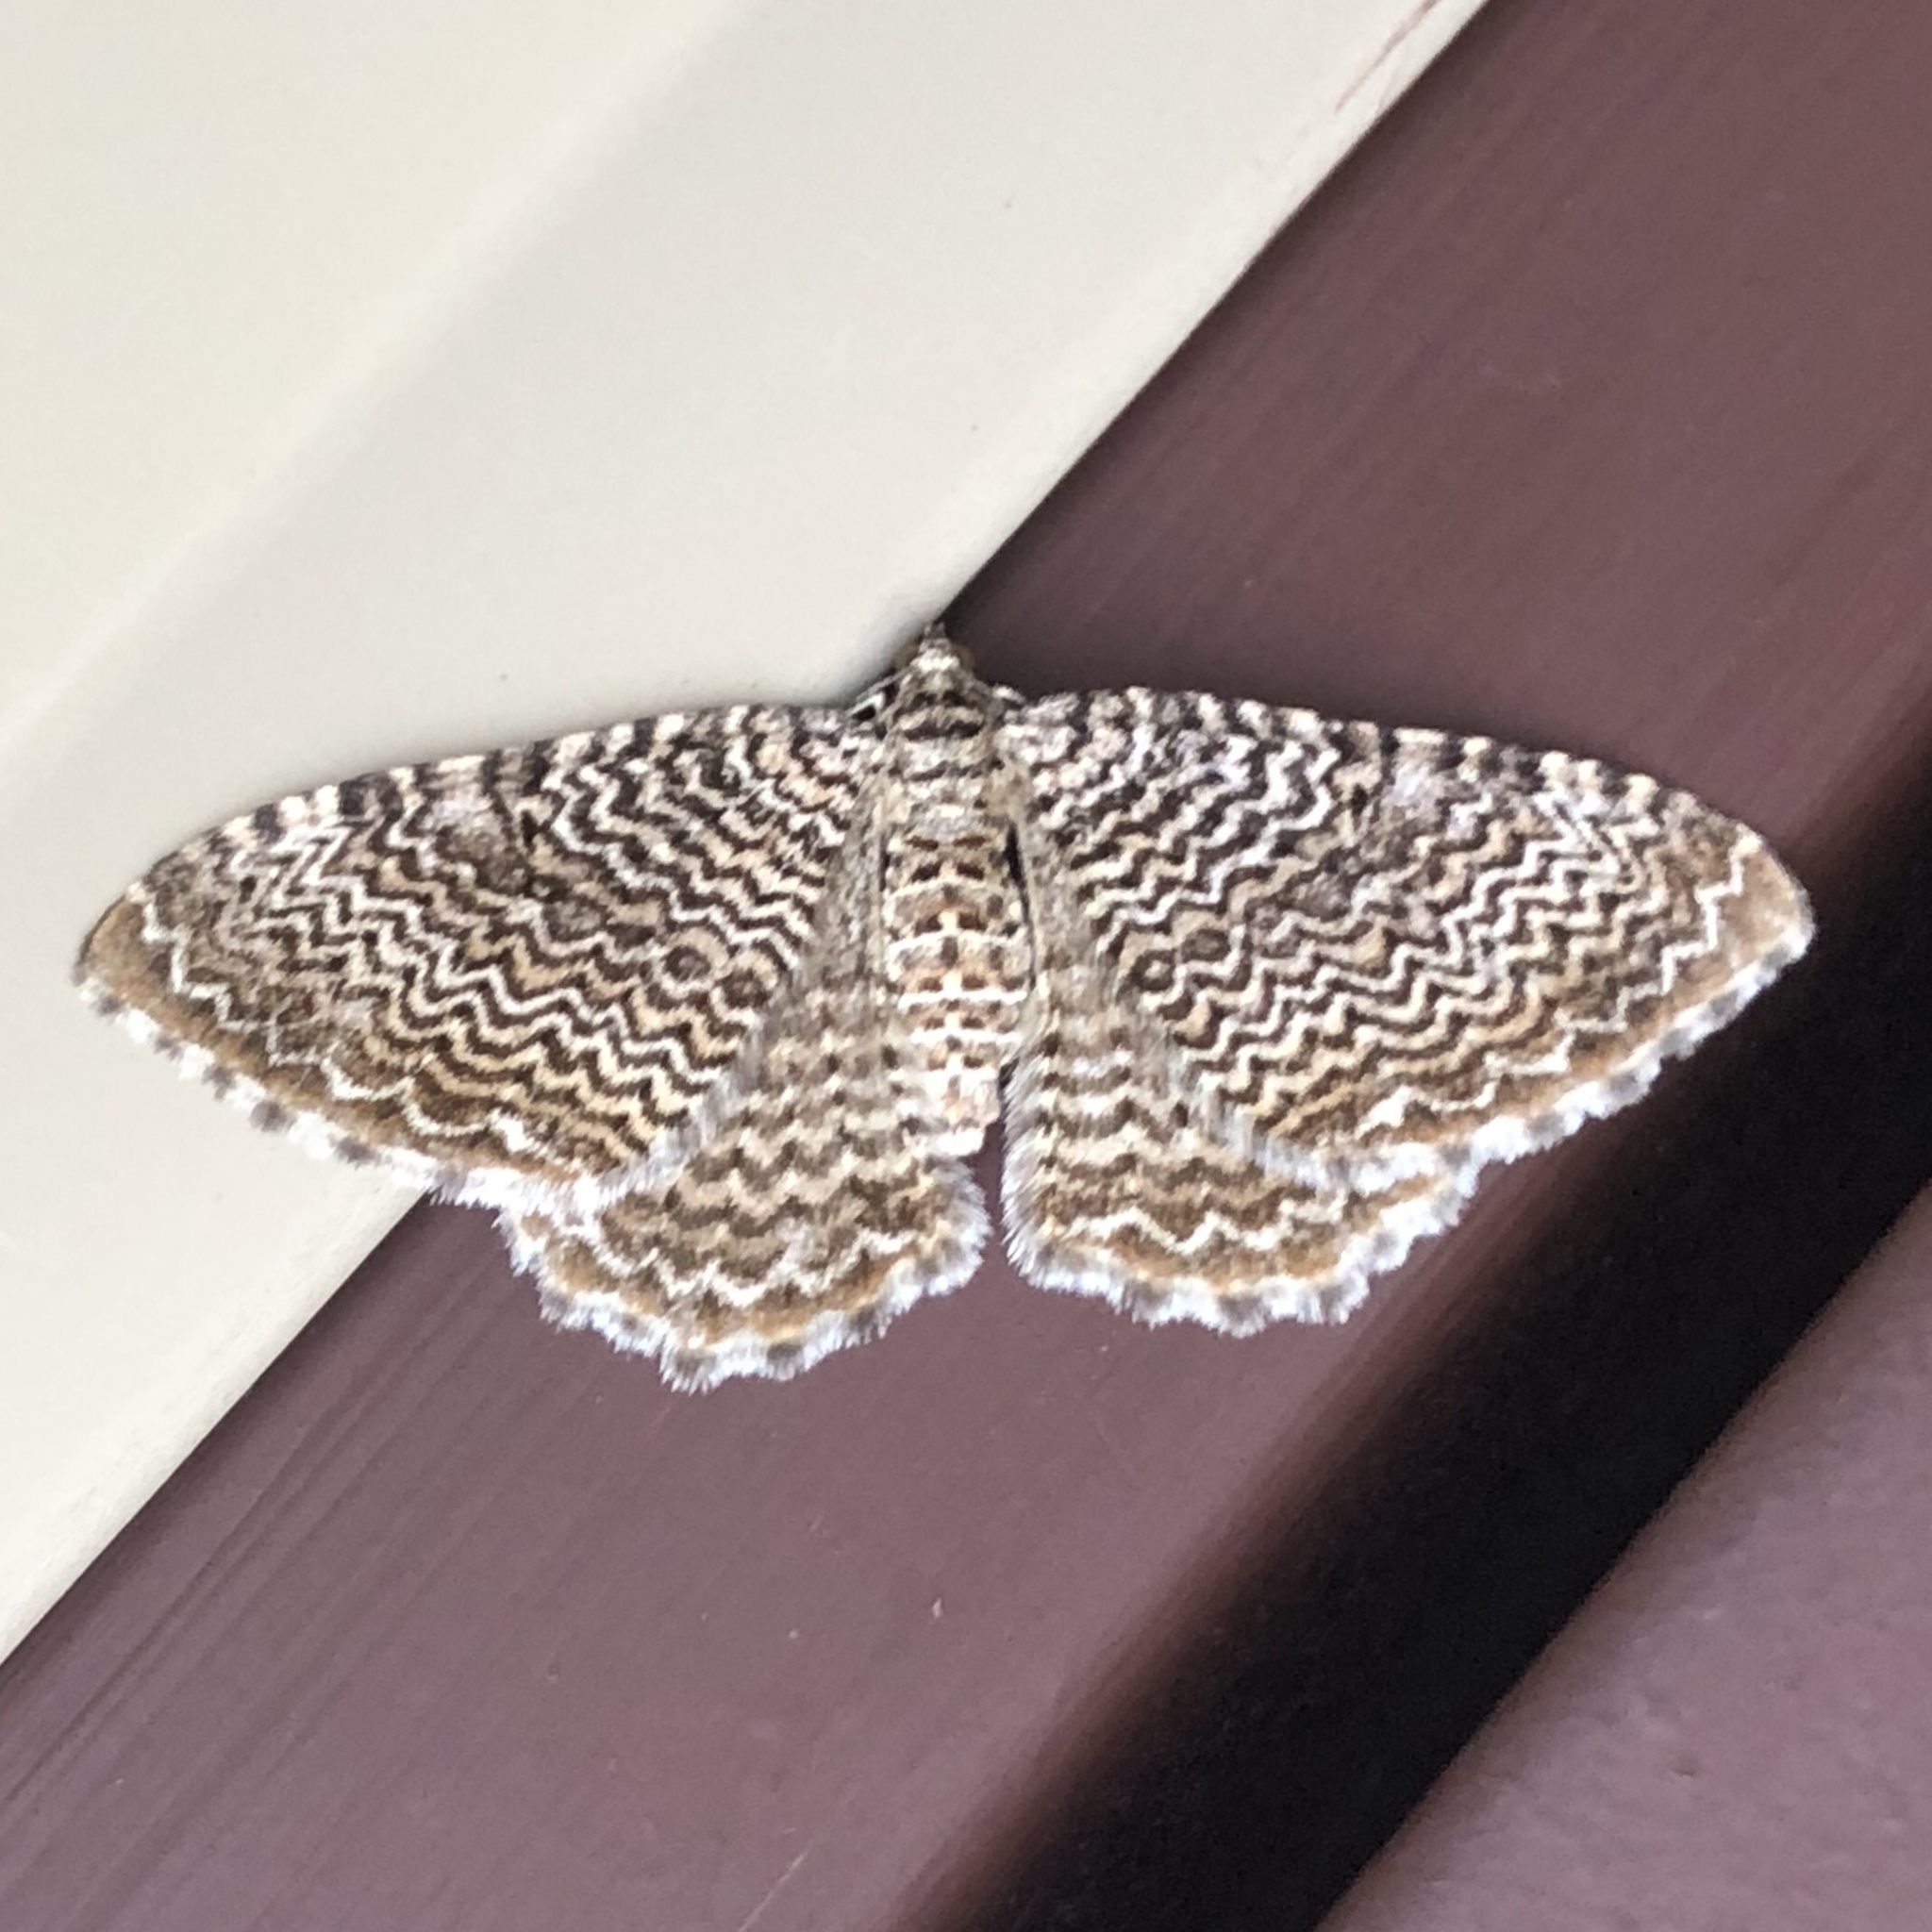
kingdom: Animalia
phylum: Arthropoda
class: Insecta
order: Lepidoptera
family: Geometridae
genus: Rheumaptera
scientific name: Rheumaptera prunivorata
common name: Cherry scallop shell moth
